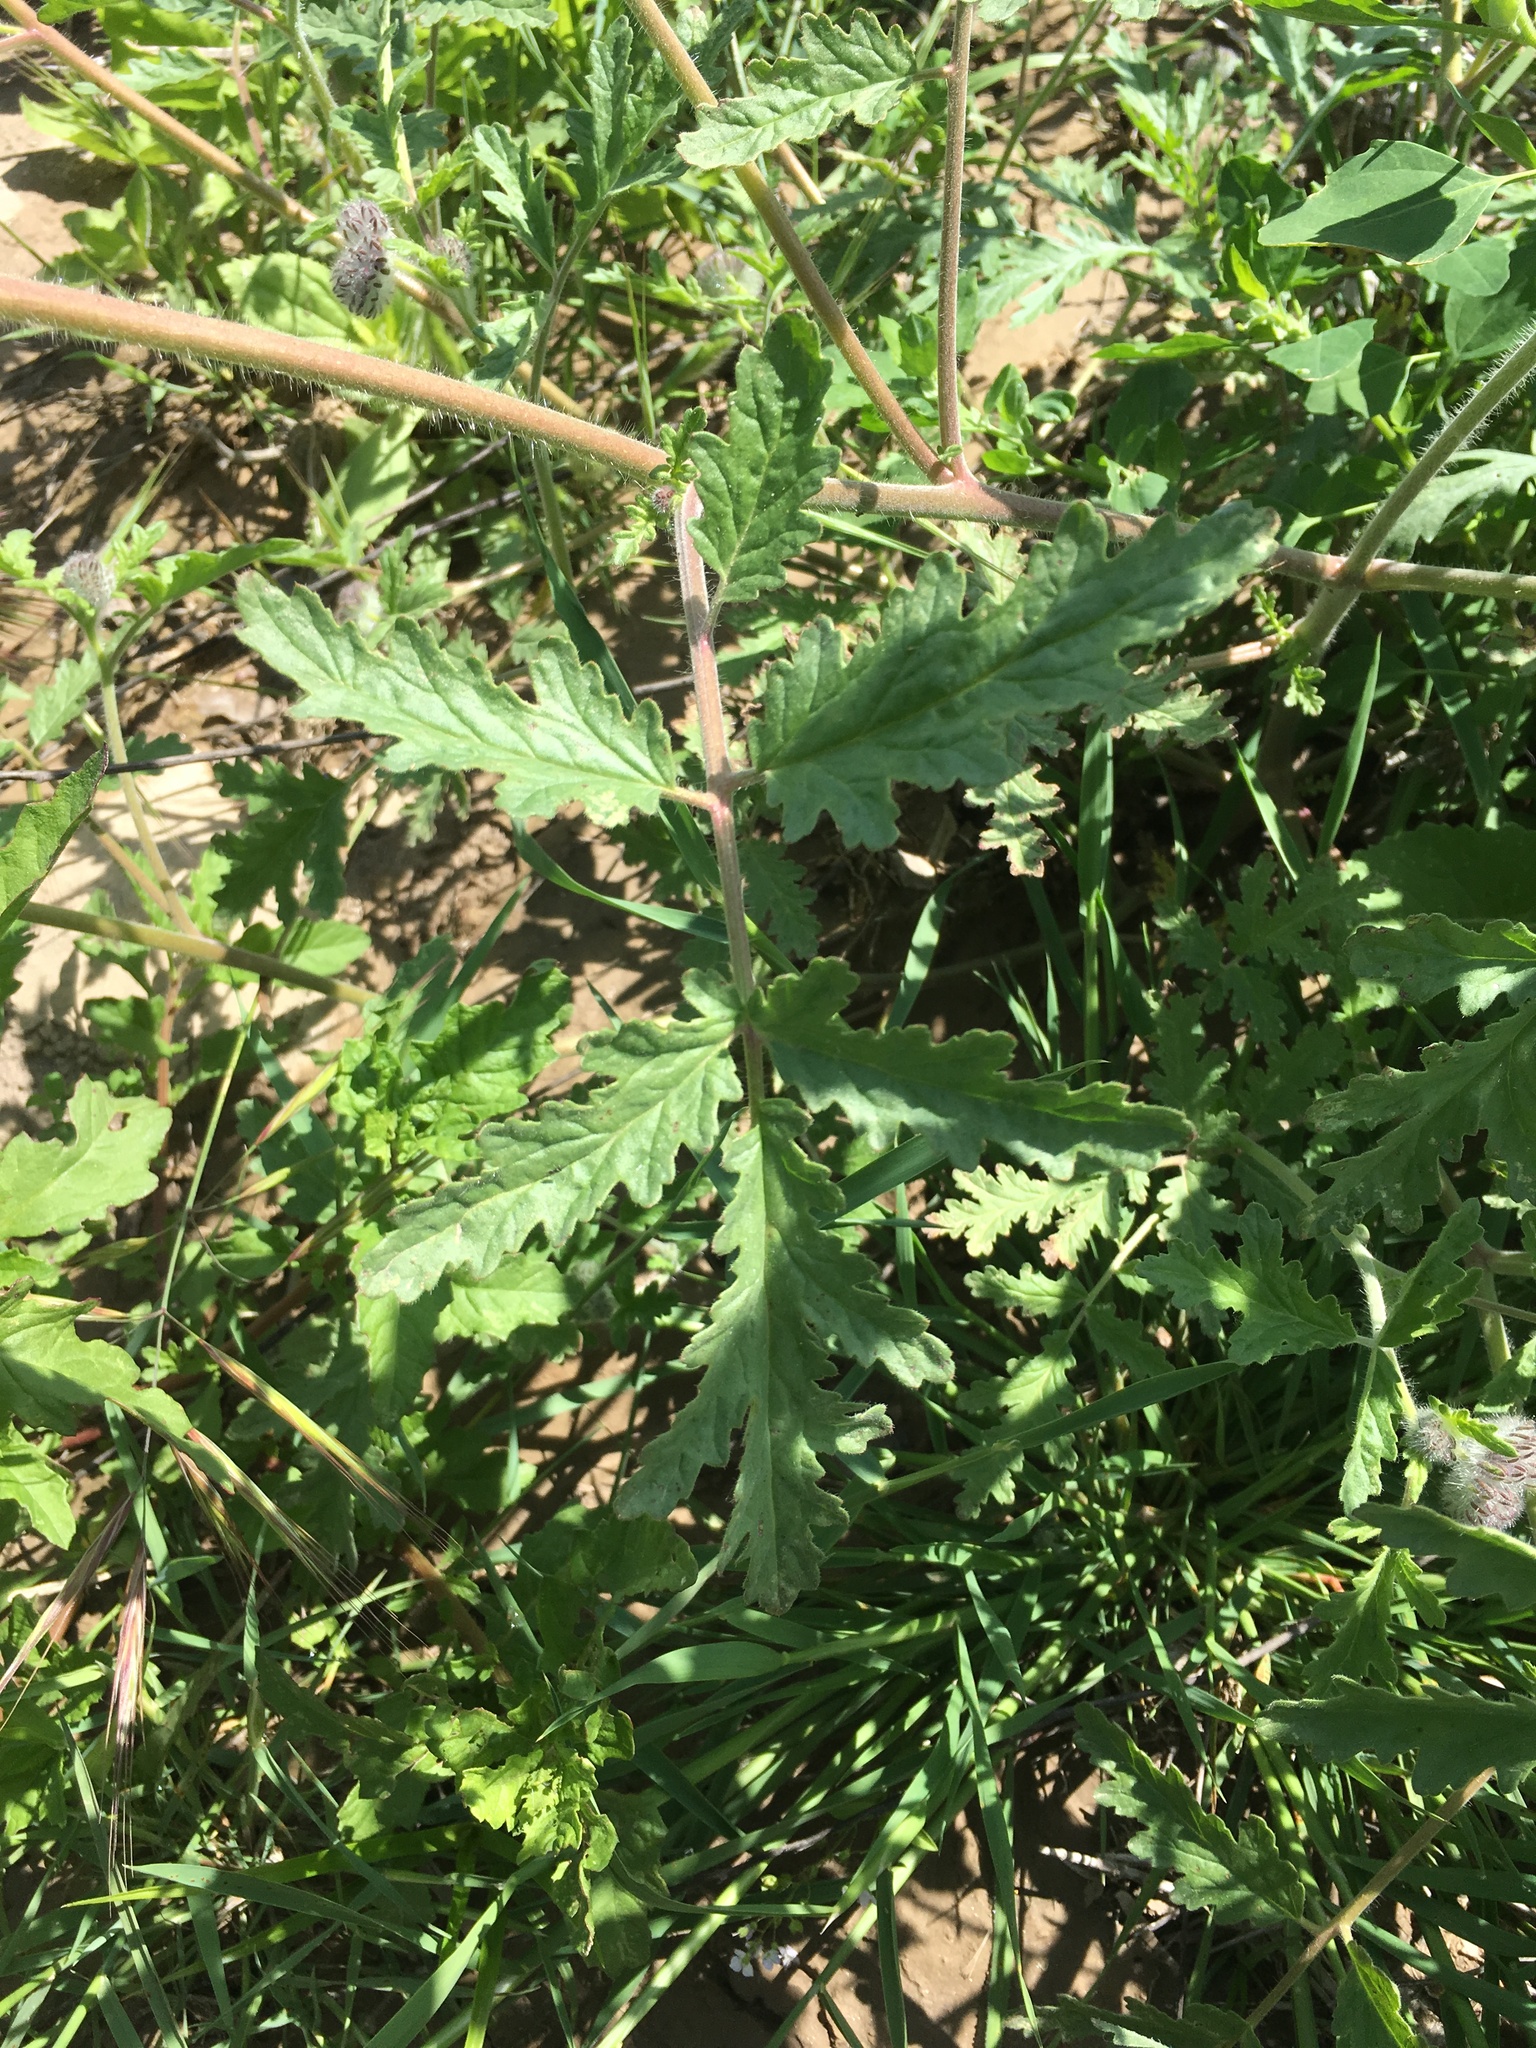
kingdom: Plantae
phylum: Tracheophyta
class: Magnoliopsida
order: Boraginales
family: Hydrophyllaceae
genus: Phacelia
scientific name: Phacelia hubbyi
